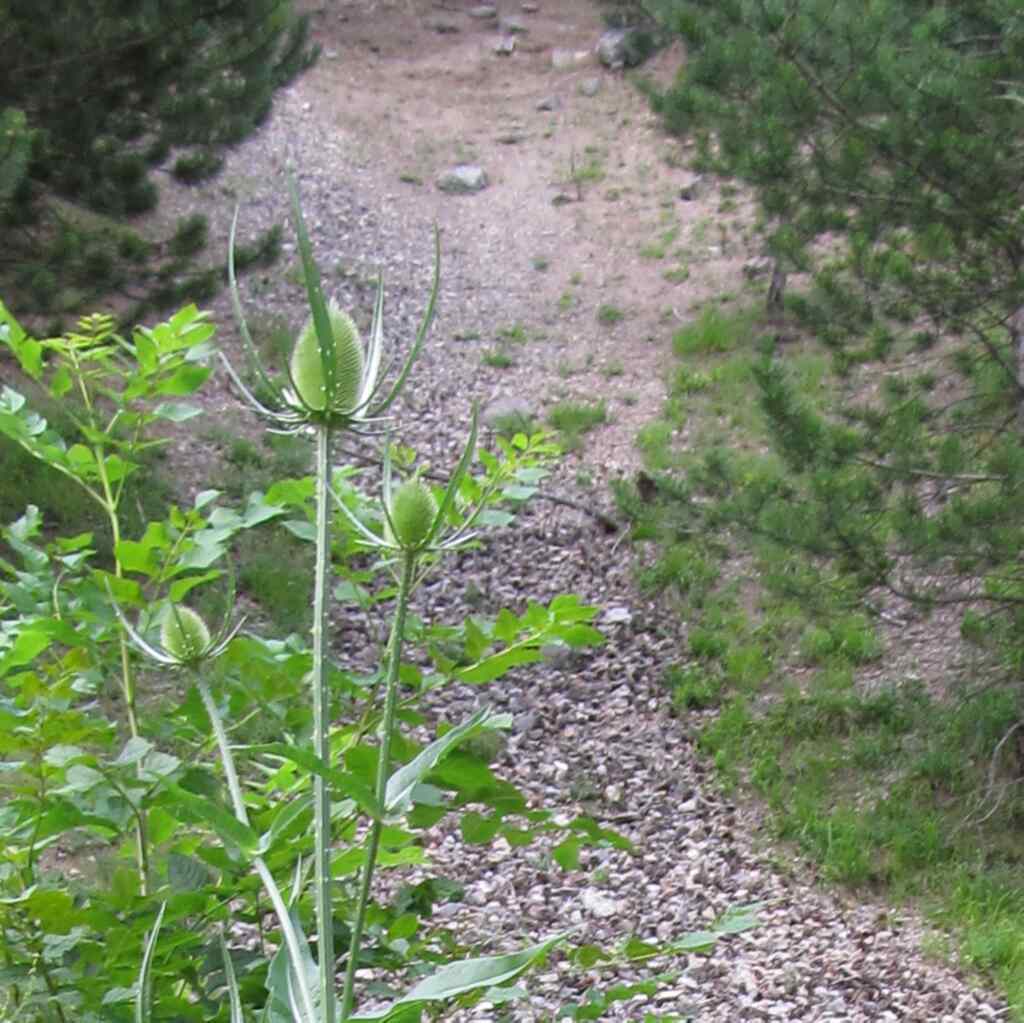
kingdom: Plantae
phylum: Tracheophyta
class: Magnoliopsida
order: Dipsacales
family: Caprifoliaceae
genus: Dipsacus
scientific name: Dipsacus fullonum
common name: Teasel
